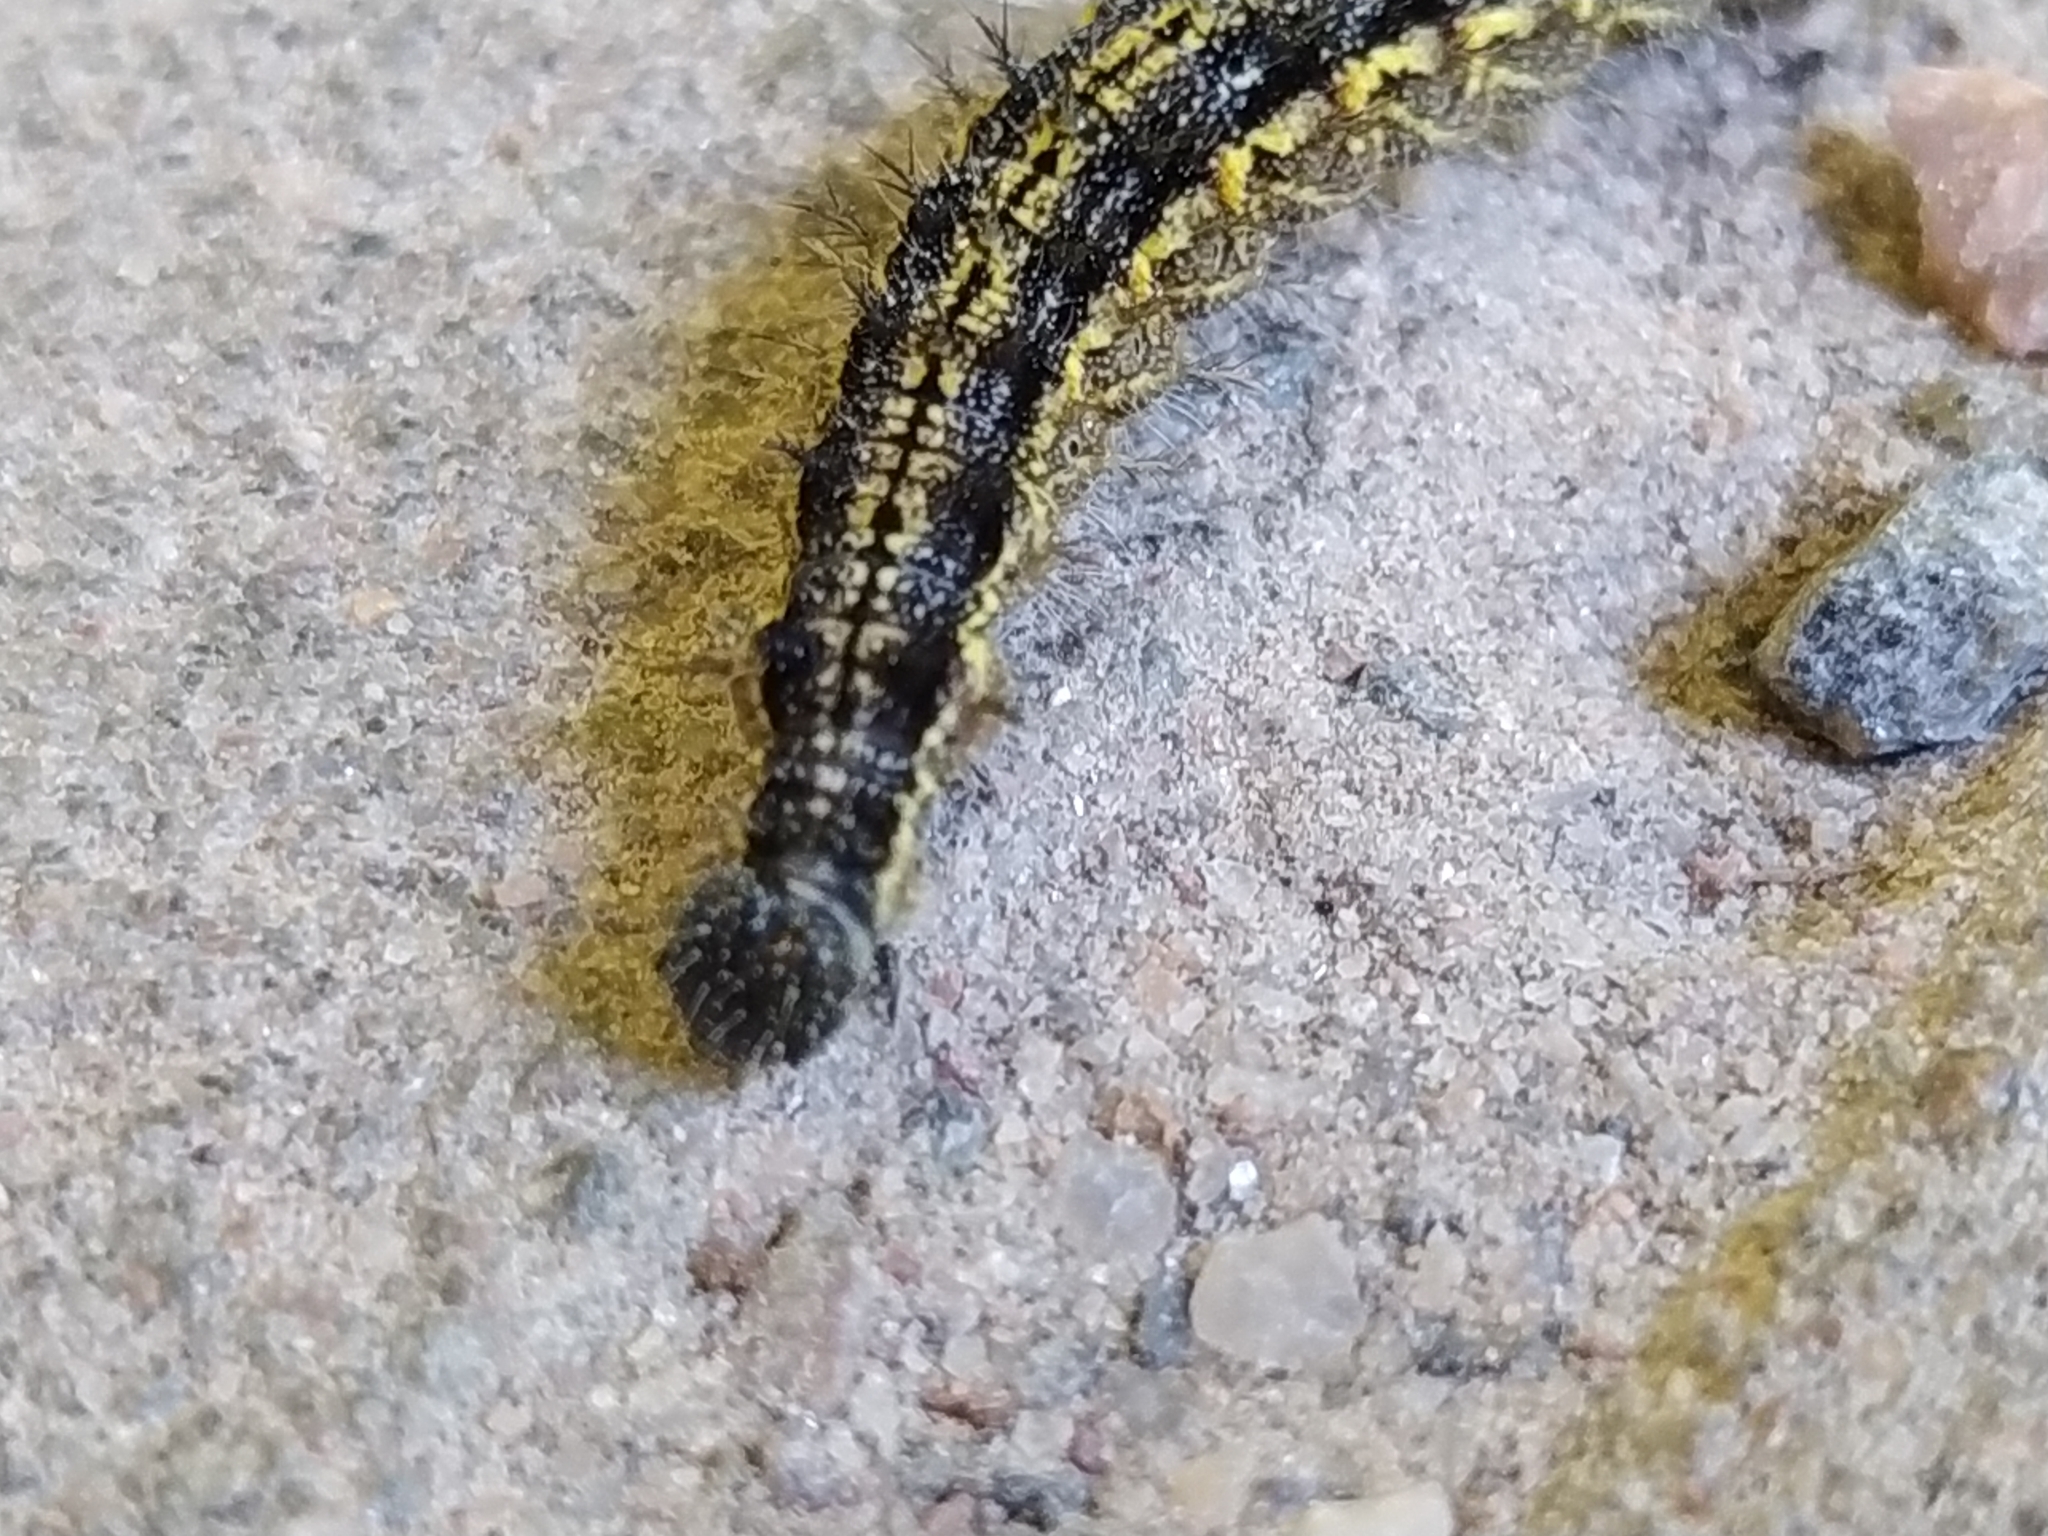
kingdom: Animalia
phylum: Arthropoda
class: Insecta
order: Lepidoptera
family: Nymphalidae
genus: Aglais
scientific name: Aglais urticae
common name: Small tortoiseshell
